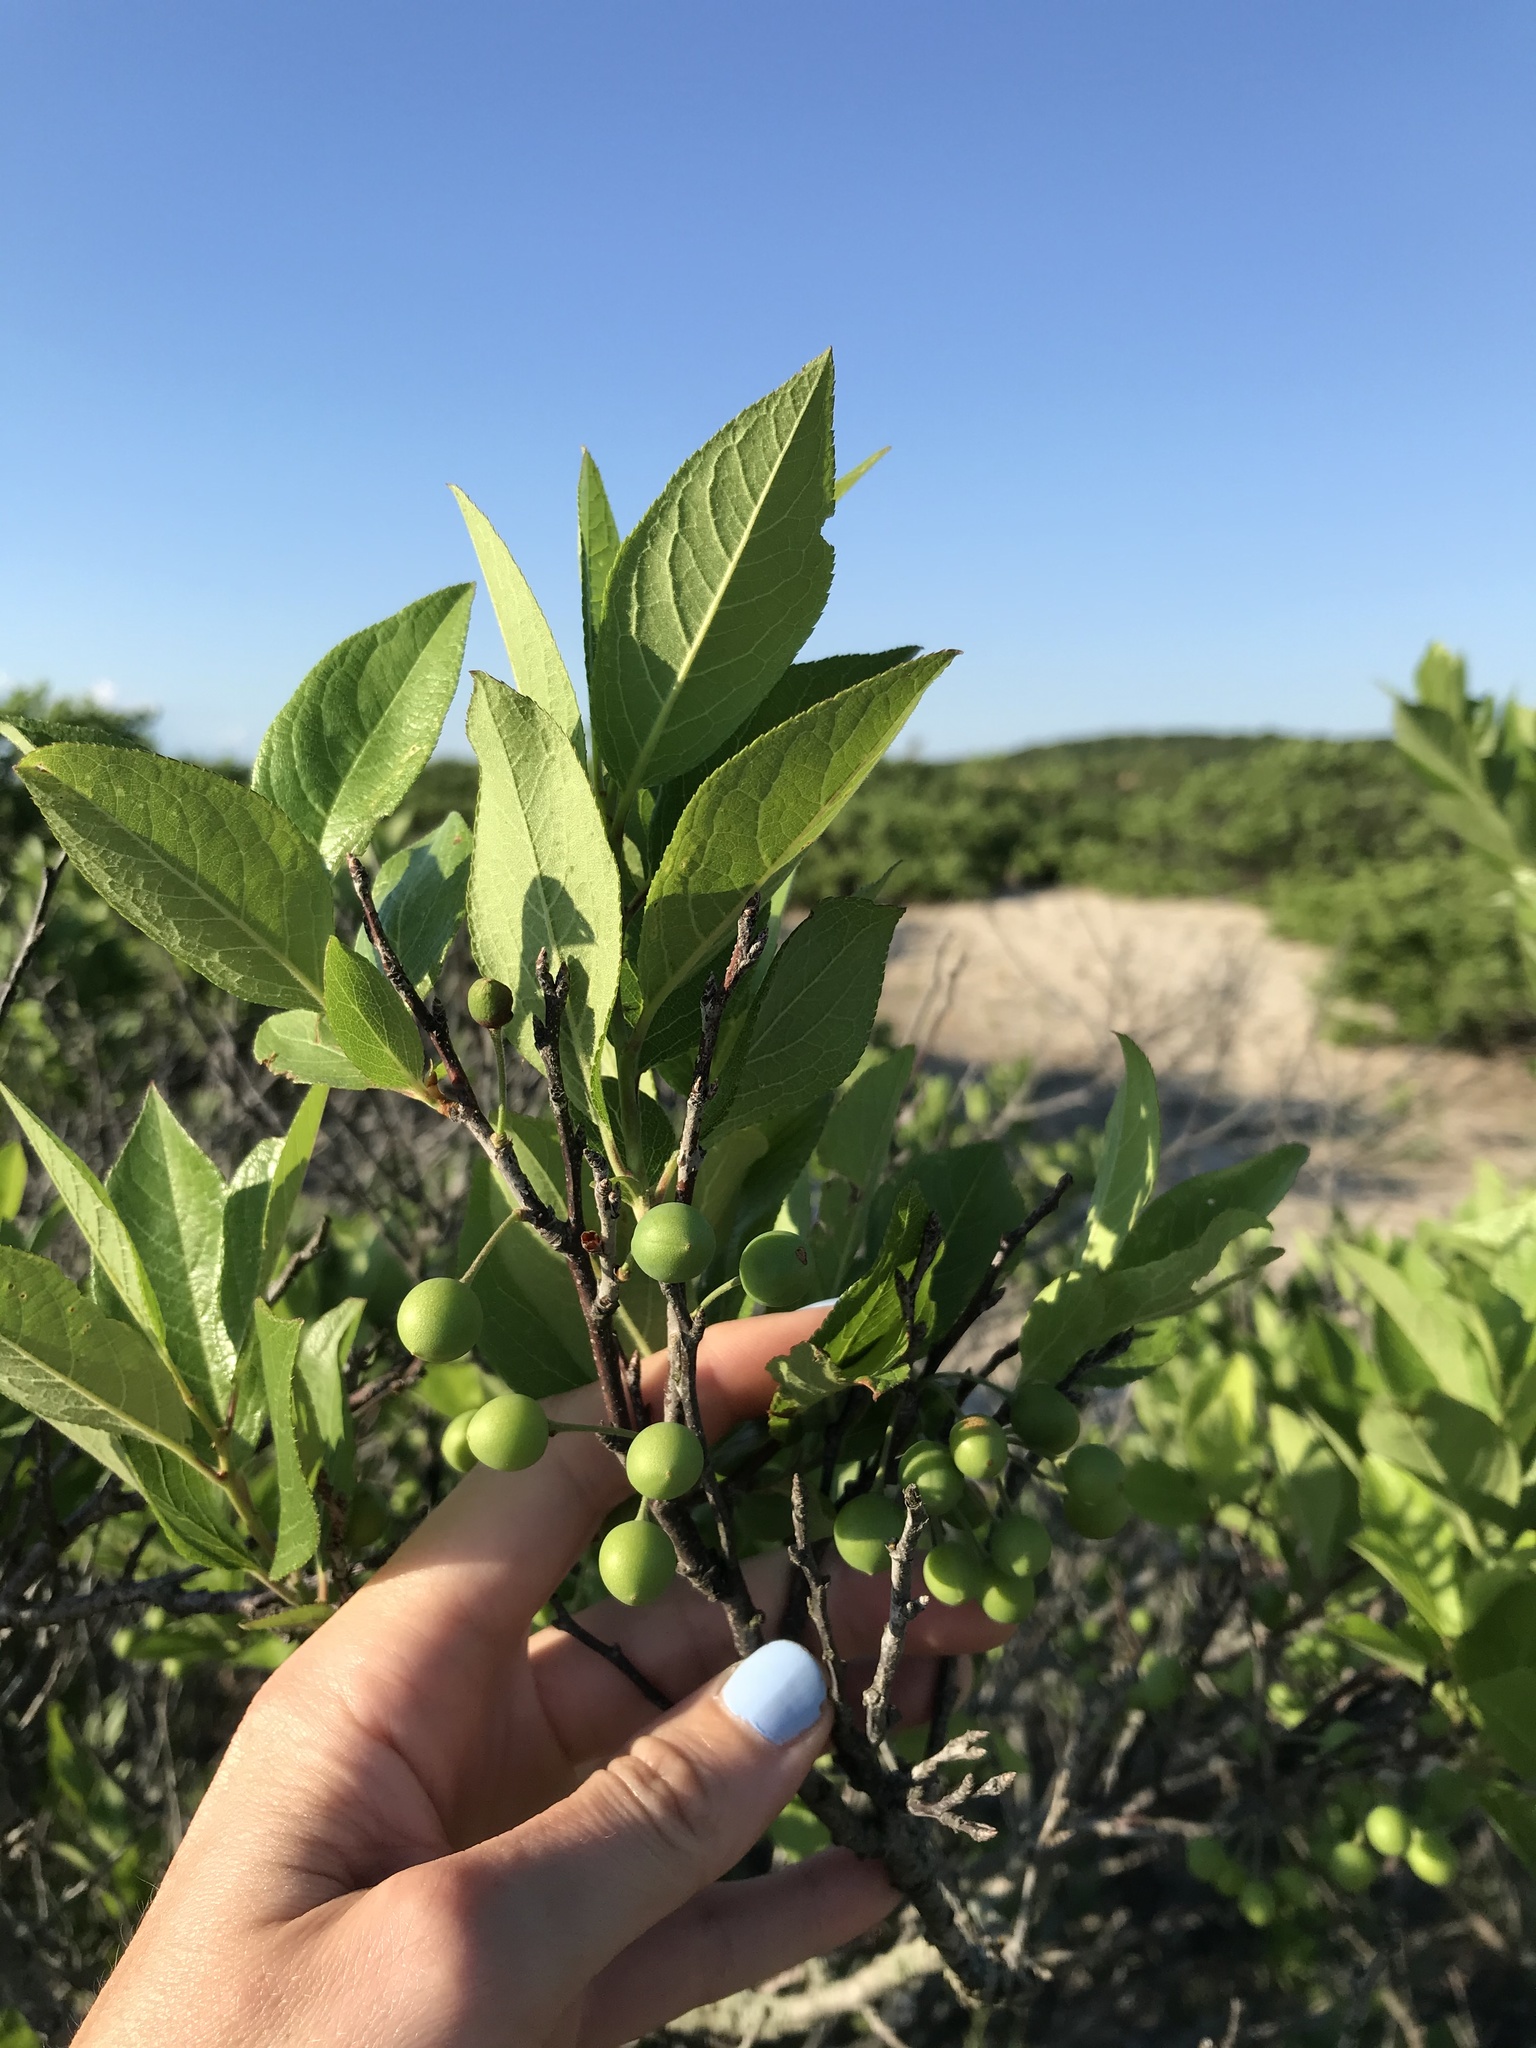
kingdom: Plantae
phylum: Tracheophyta
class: Magnoliopsida
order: Rosales
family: Rosaceae
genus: Prunus
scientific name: Prunus maritima
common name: Beach plum
